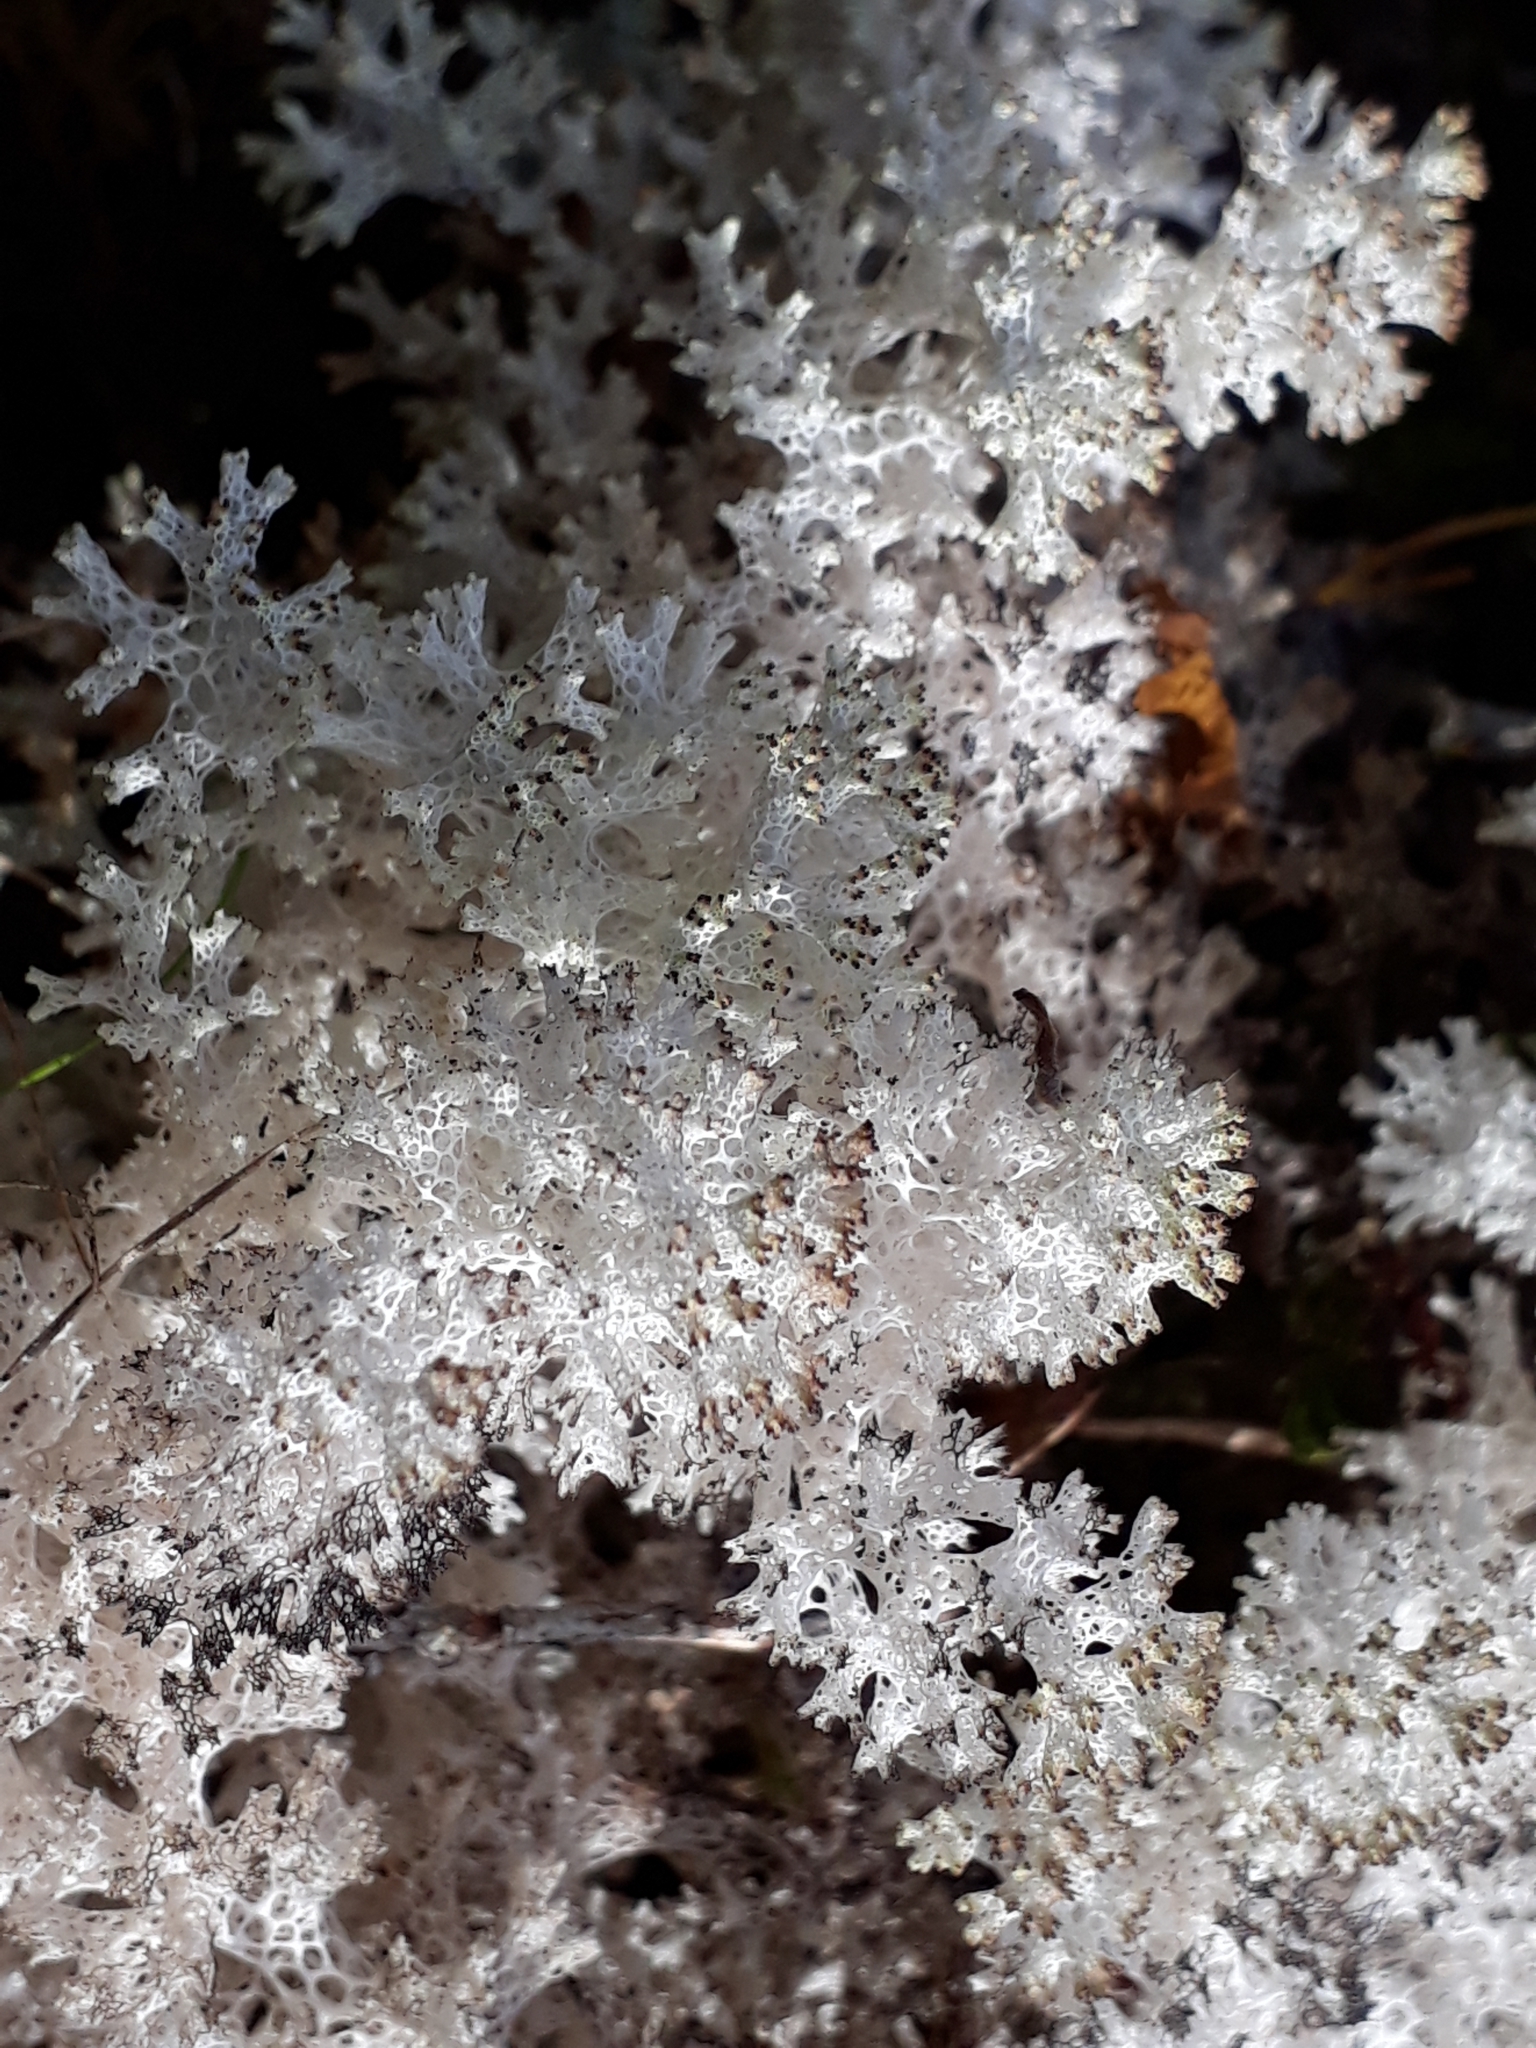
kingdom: Fungi
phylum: Ascomycota
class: Lecanoromycetes
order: Lecanorales
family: Cladoniaceae
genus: Pulchrocladia
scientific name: Pulchrocladia retipora
